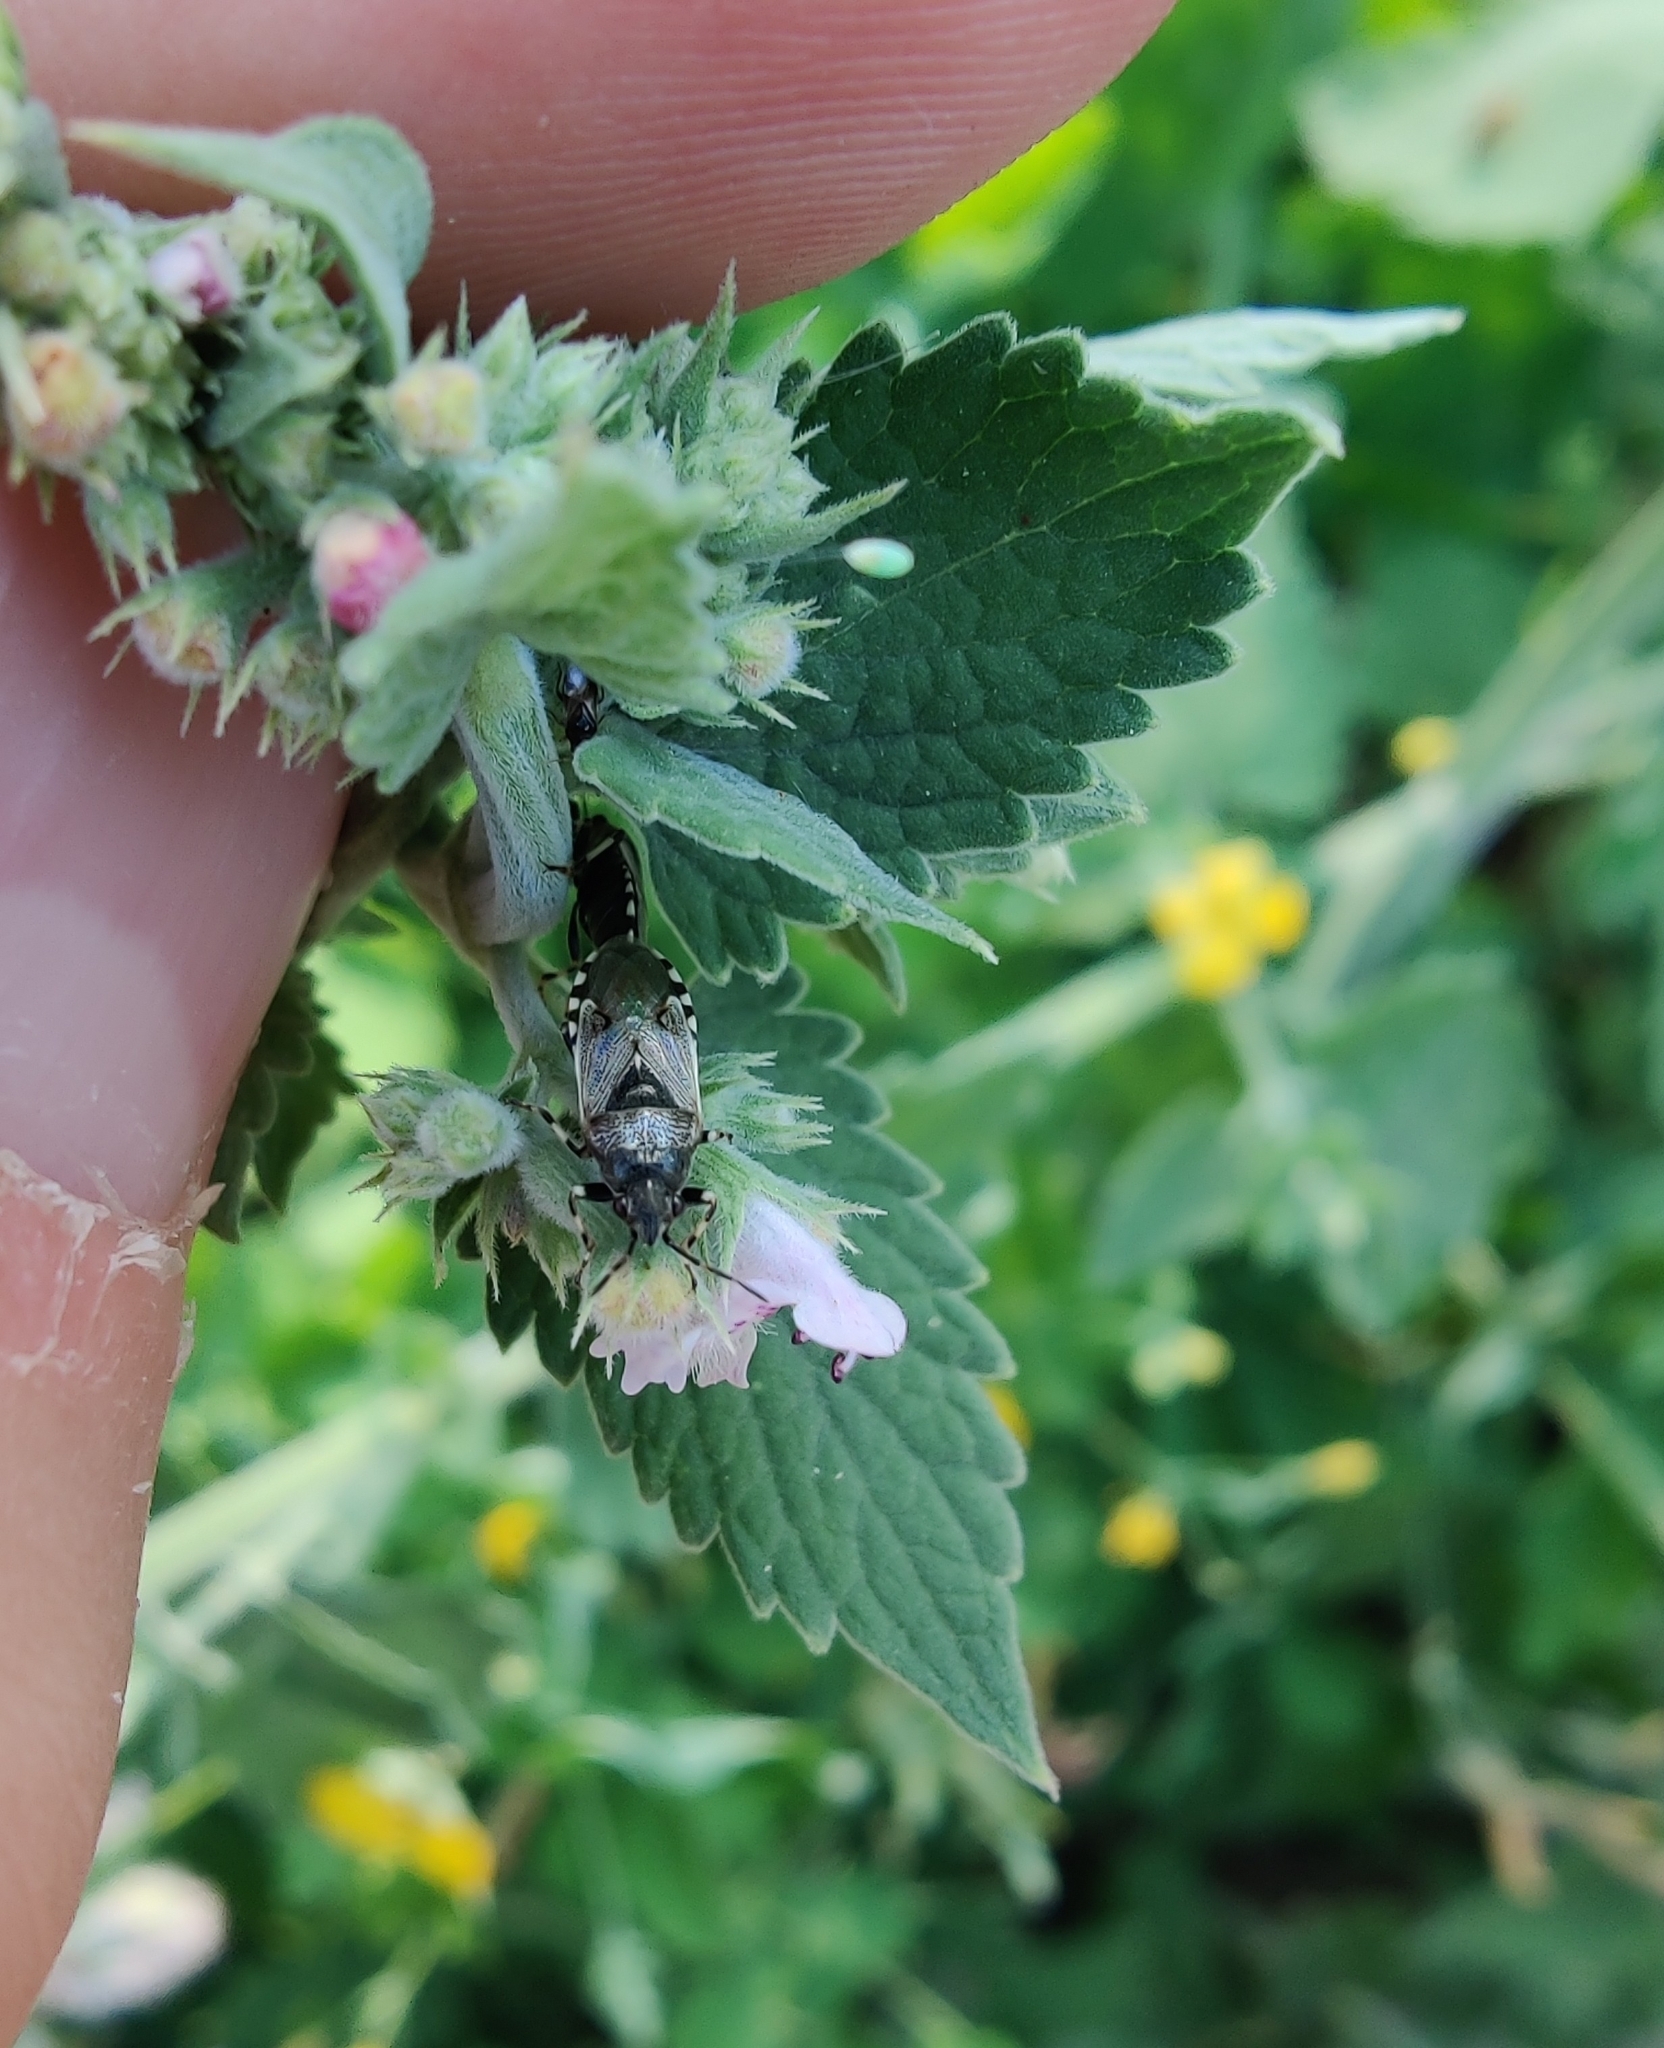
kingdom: Animalia
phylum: Arthropoda
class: Insecta
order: Hemiptera
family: Heterogastridae
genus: Heterogaster
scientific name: Heterogaster cathariae
